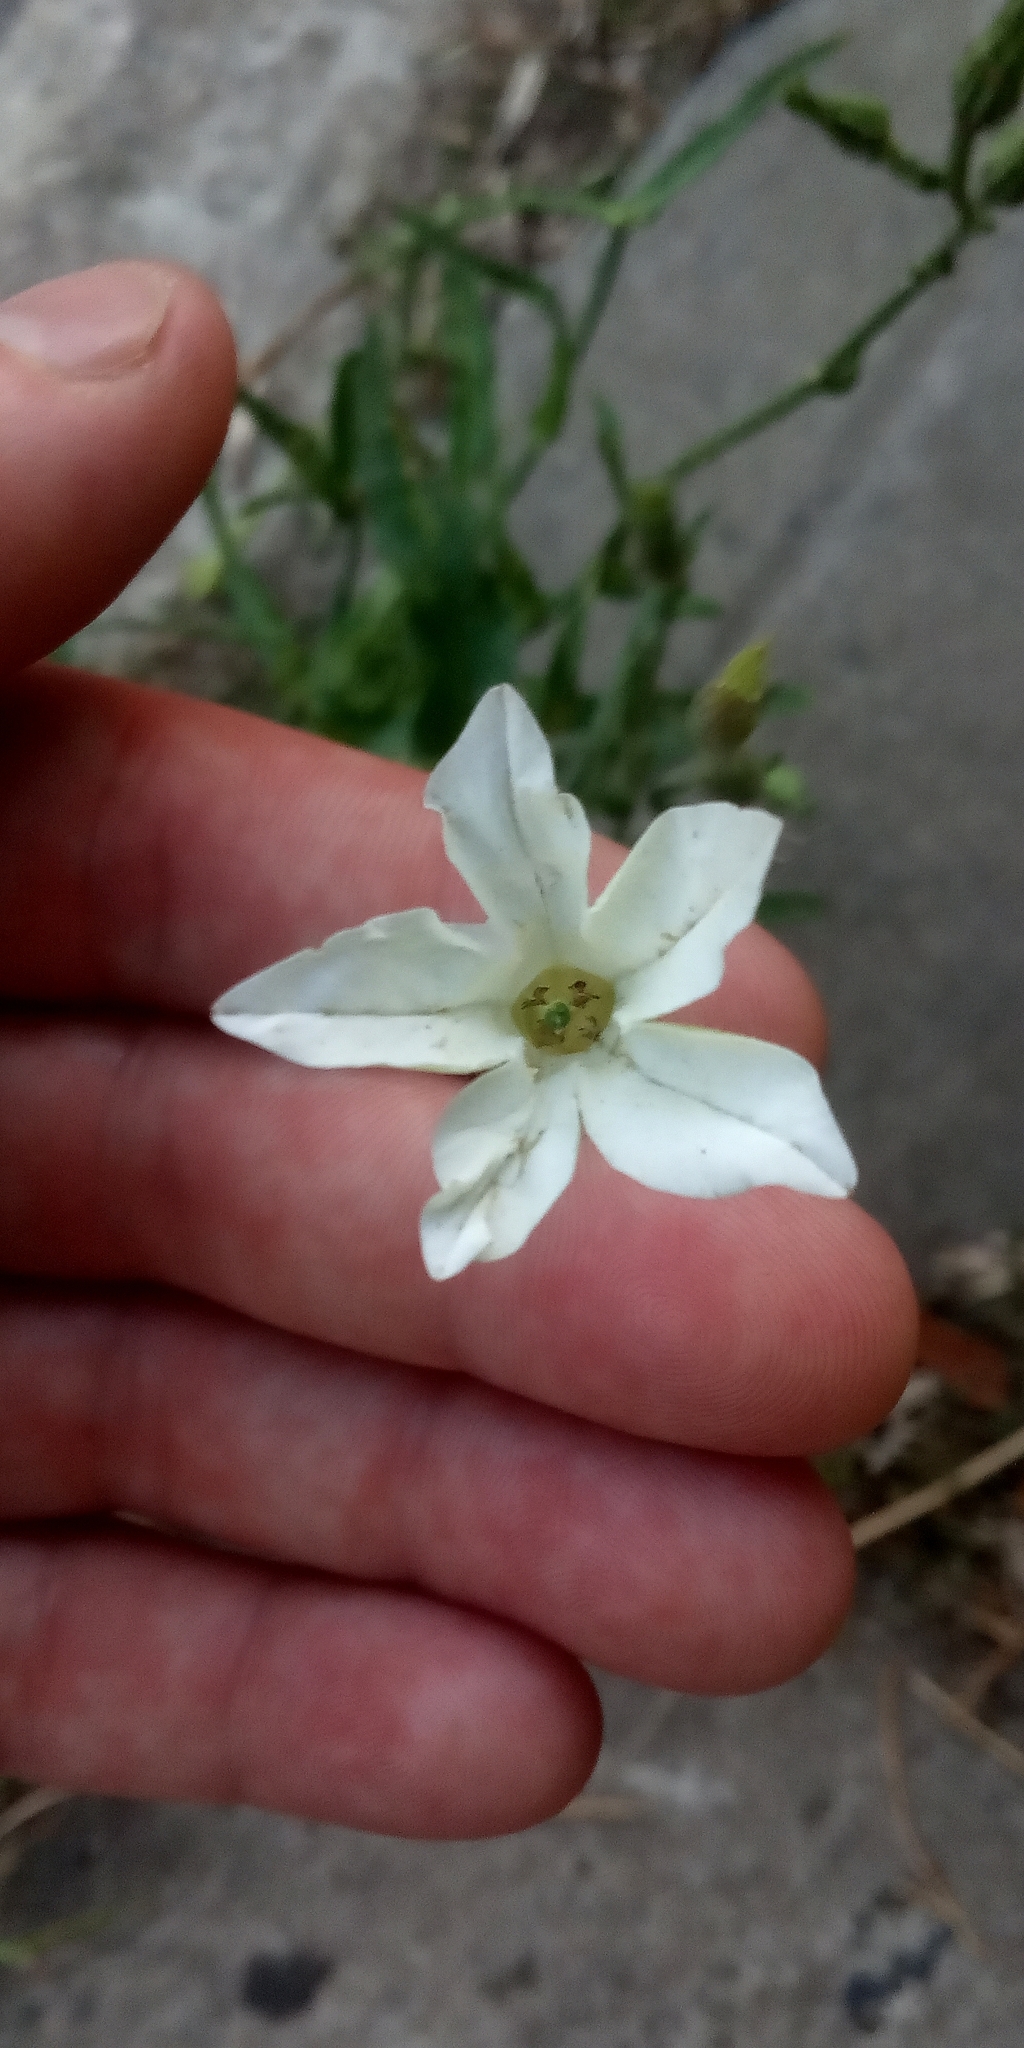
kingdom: Plantae
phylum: Tracheophyta
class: Magnoliopsida
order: Solanales
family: Solanaceae
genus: Nicotiana
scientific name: Nicotiana longiflora
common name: Long-flowered tobacco
